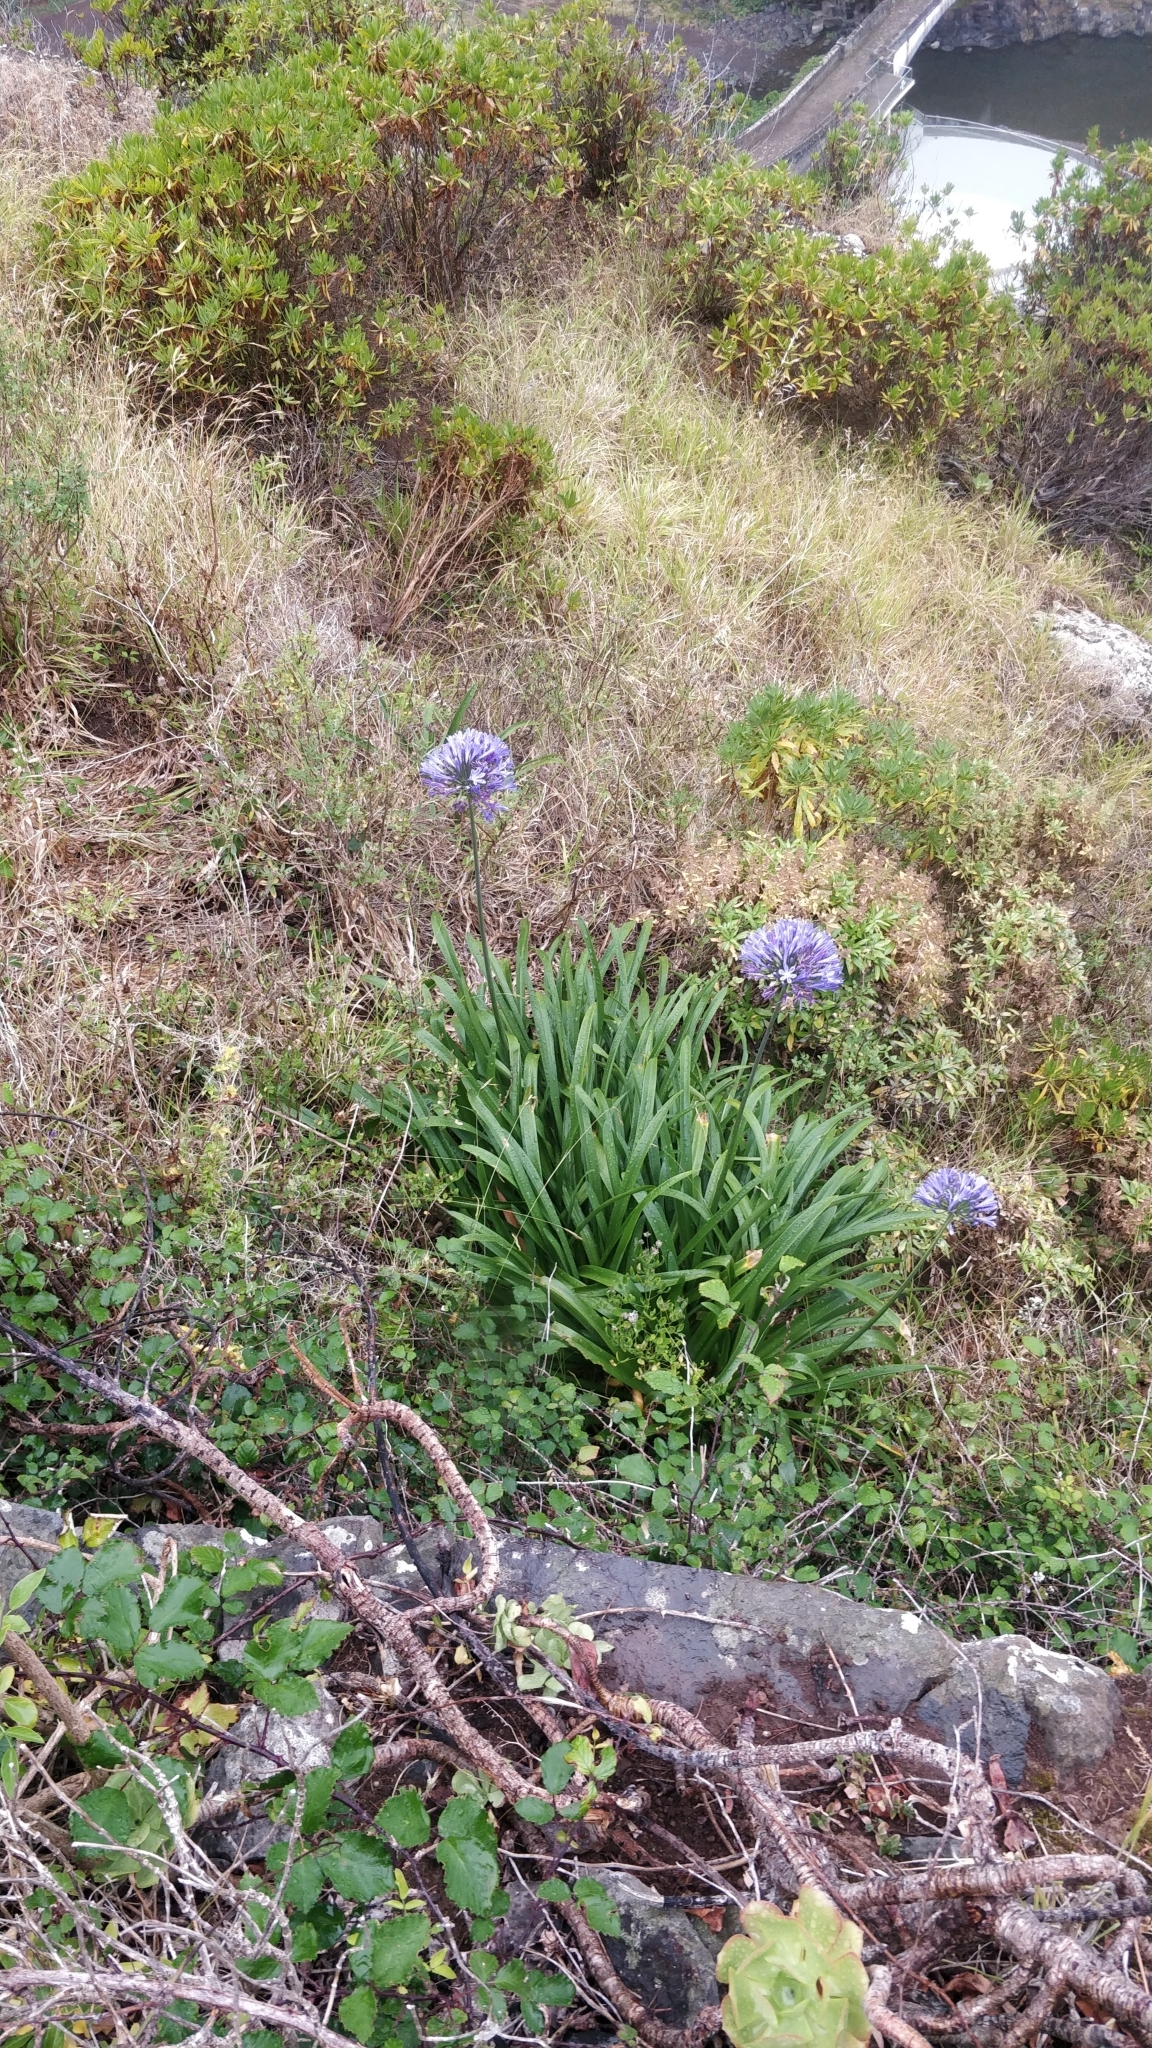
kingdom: Plantae
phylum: Tracheophyta
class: Liliopsida
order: Asparagales
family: Amaryllidaceae
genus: Agapanthus
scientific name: Agapanthus praecox
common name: African-lily
